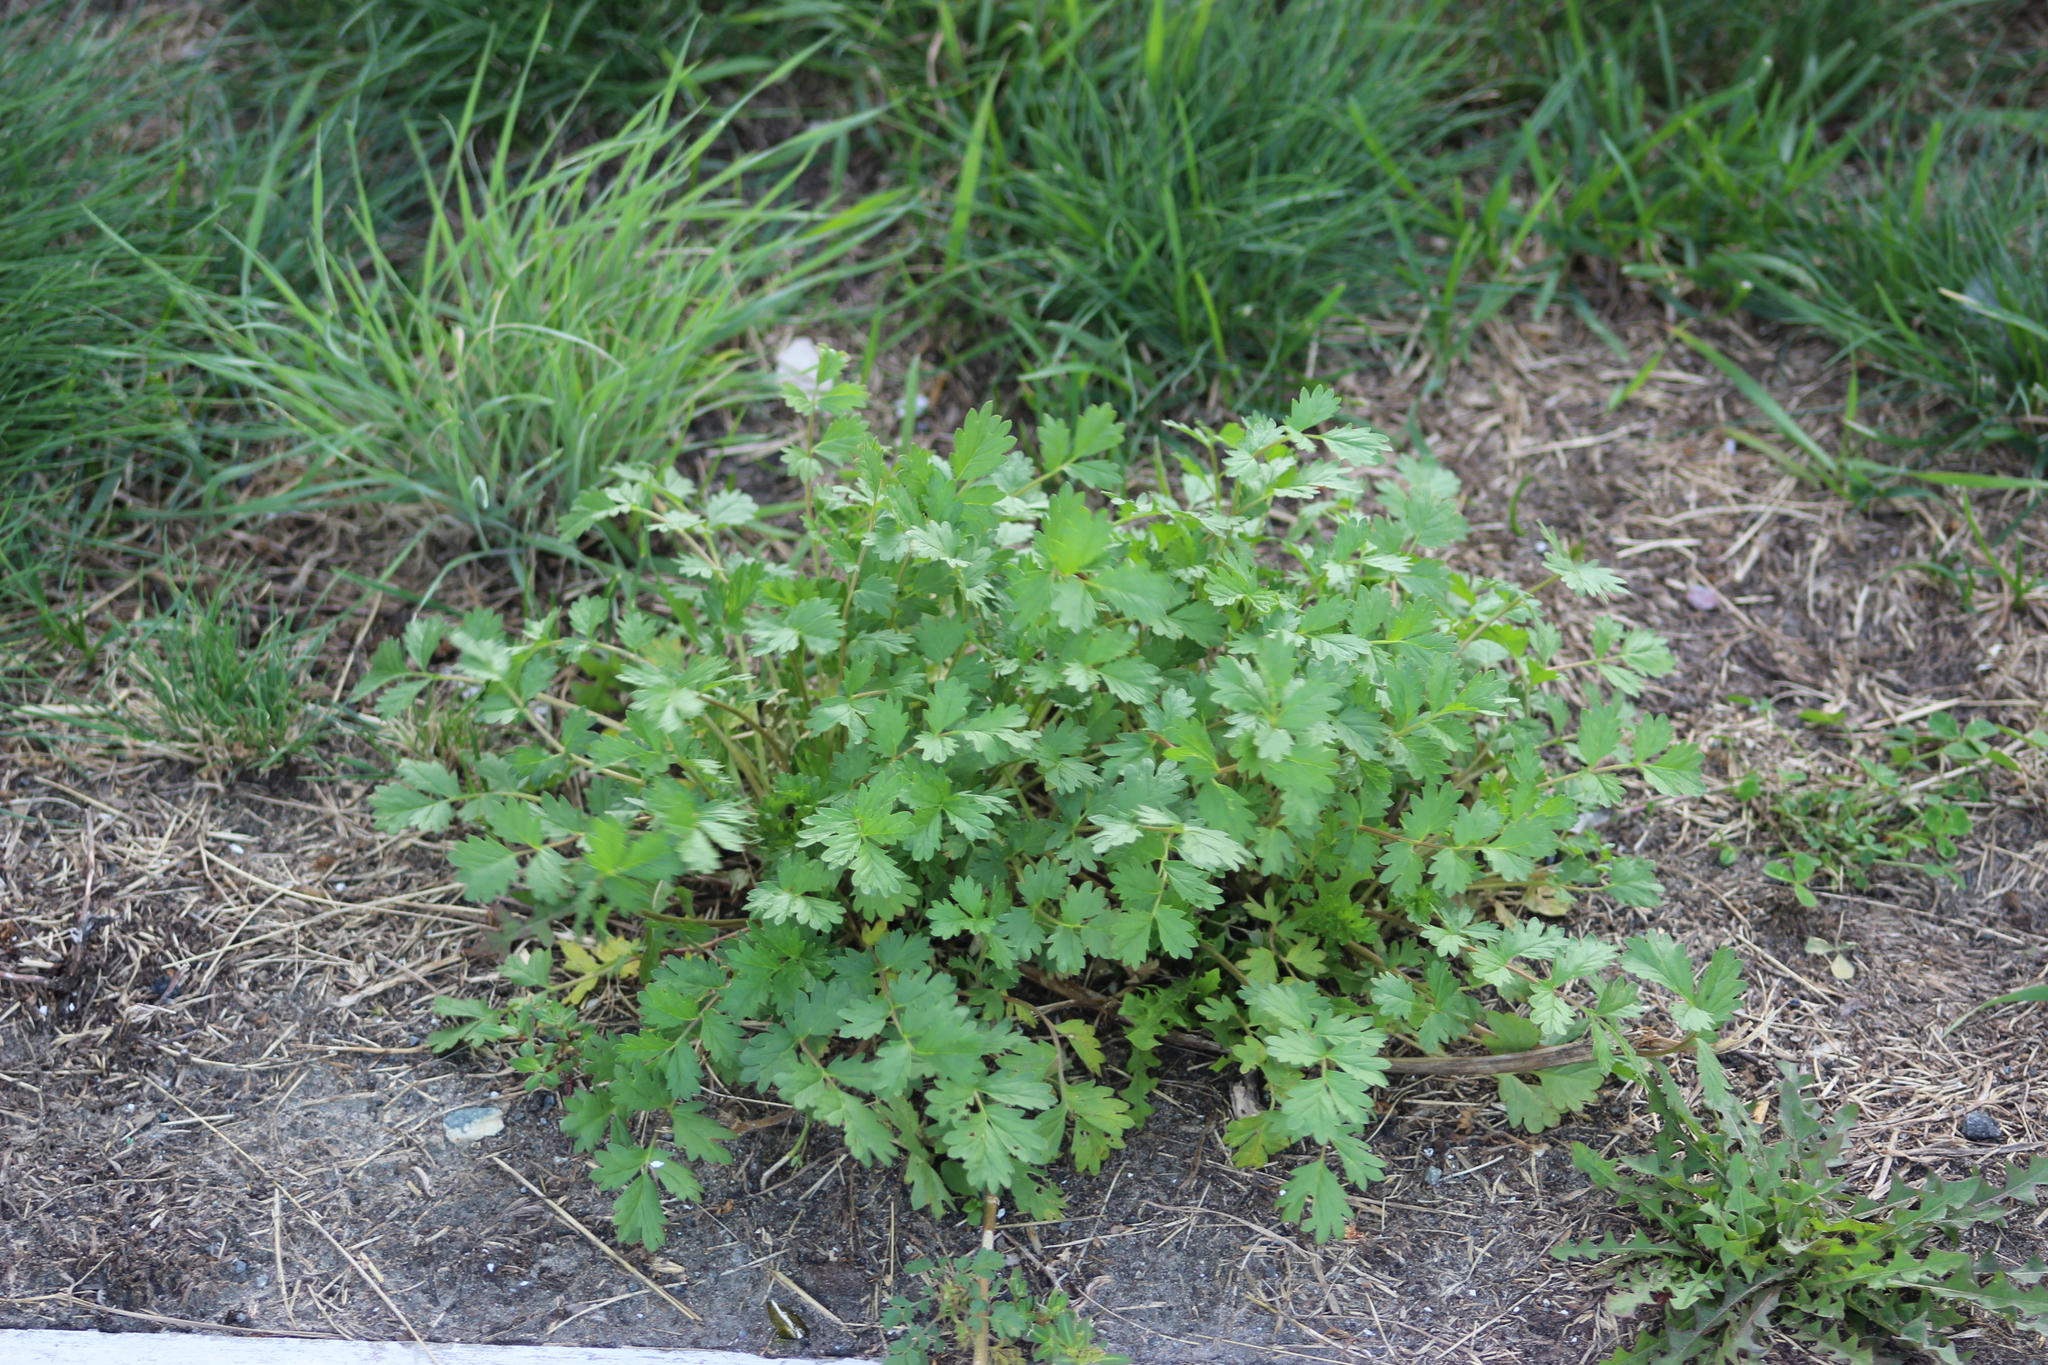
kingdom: Plantae
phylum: Tracheophyta
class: Magnoliopsida
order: Rosales
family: Rosaceae
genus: Potentilla
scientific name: Potentilla supina
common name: Prostrate cinquefoil
